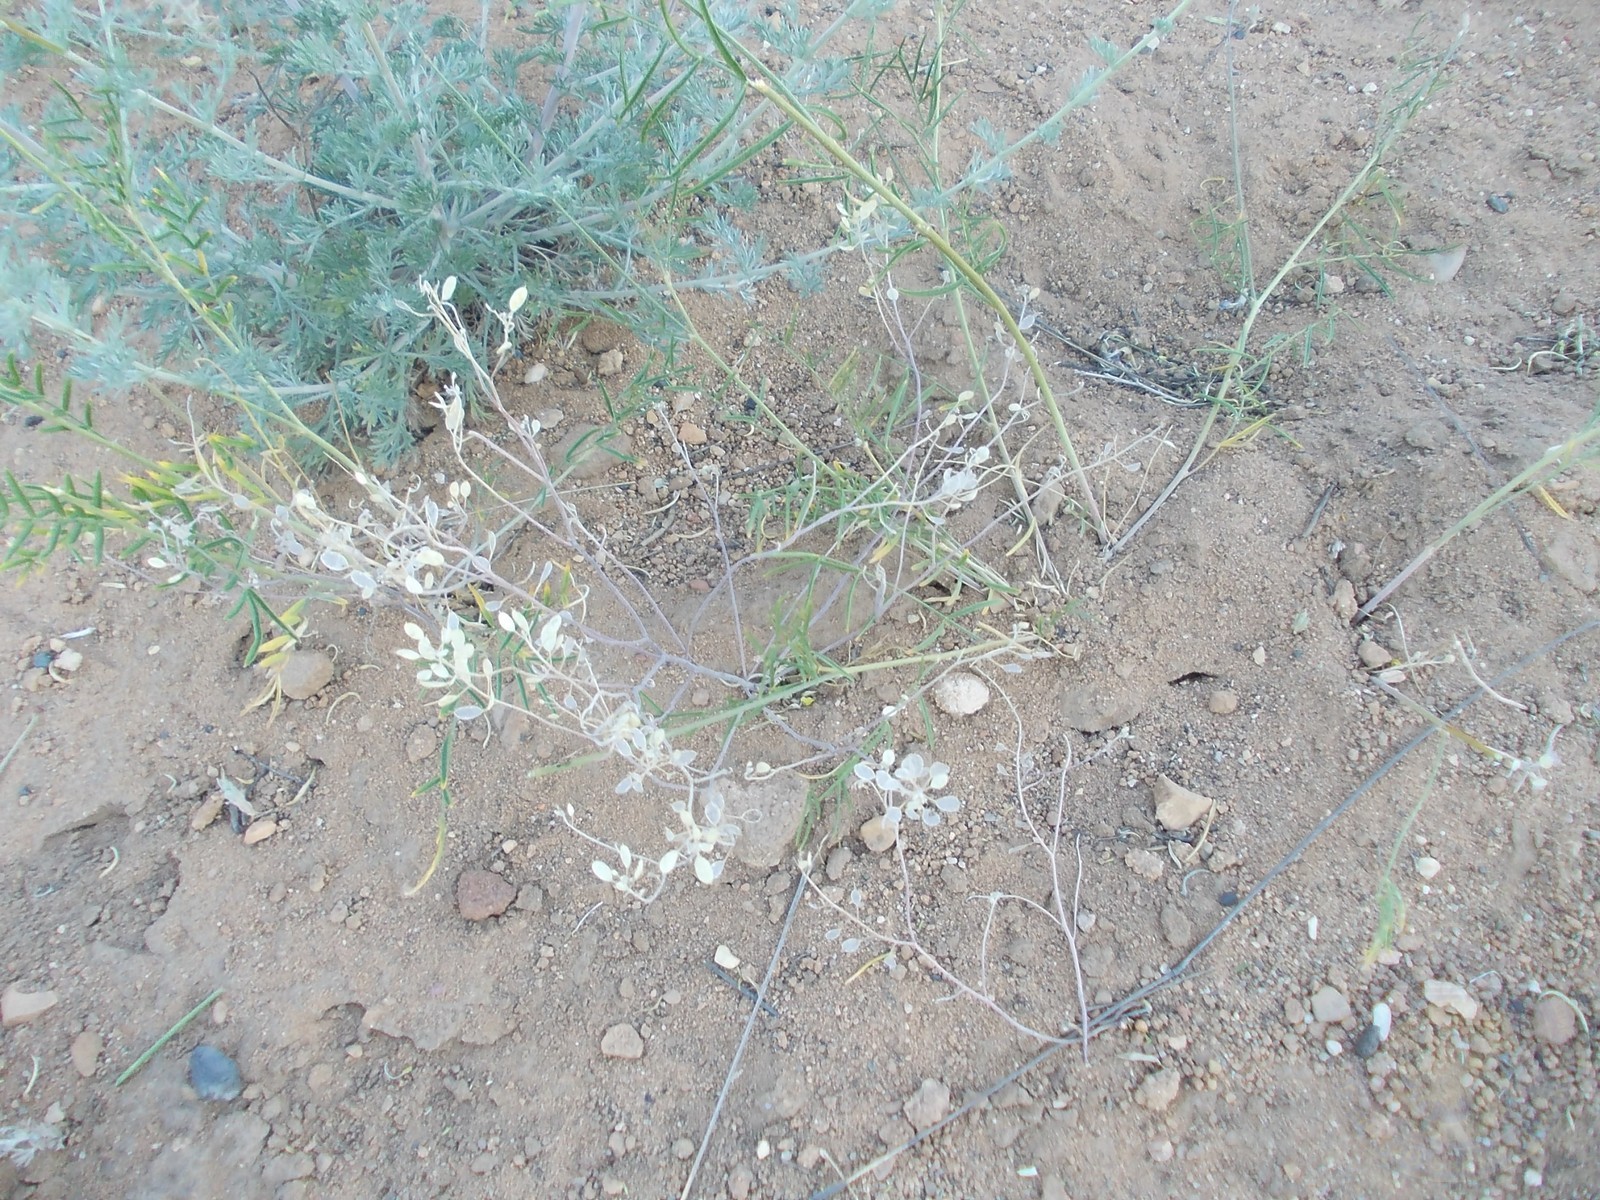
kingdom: Plantae
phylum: Tracheophyta
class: Magnoliopsida
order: Brassicales
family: Brassicaceae
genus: Meniocus
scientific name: Meniocus linifolius
